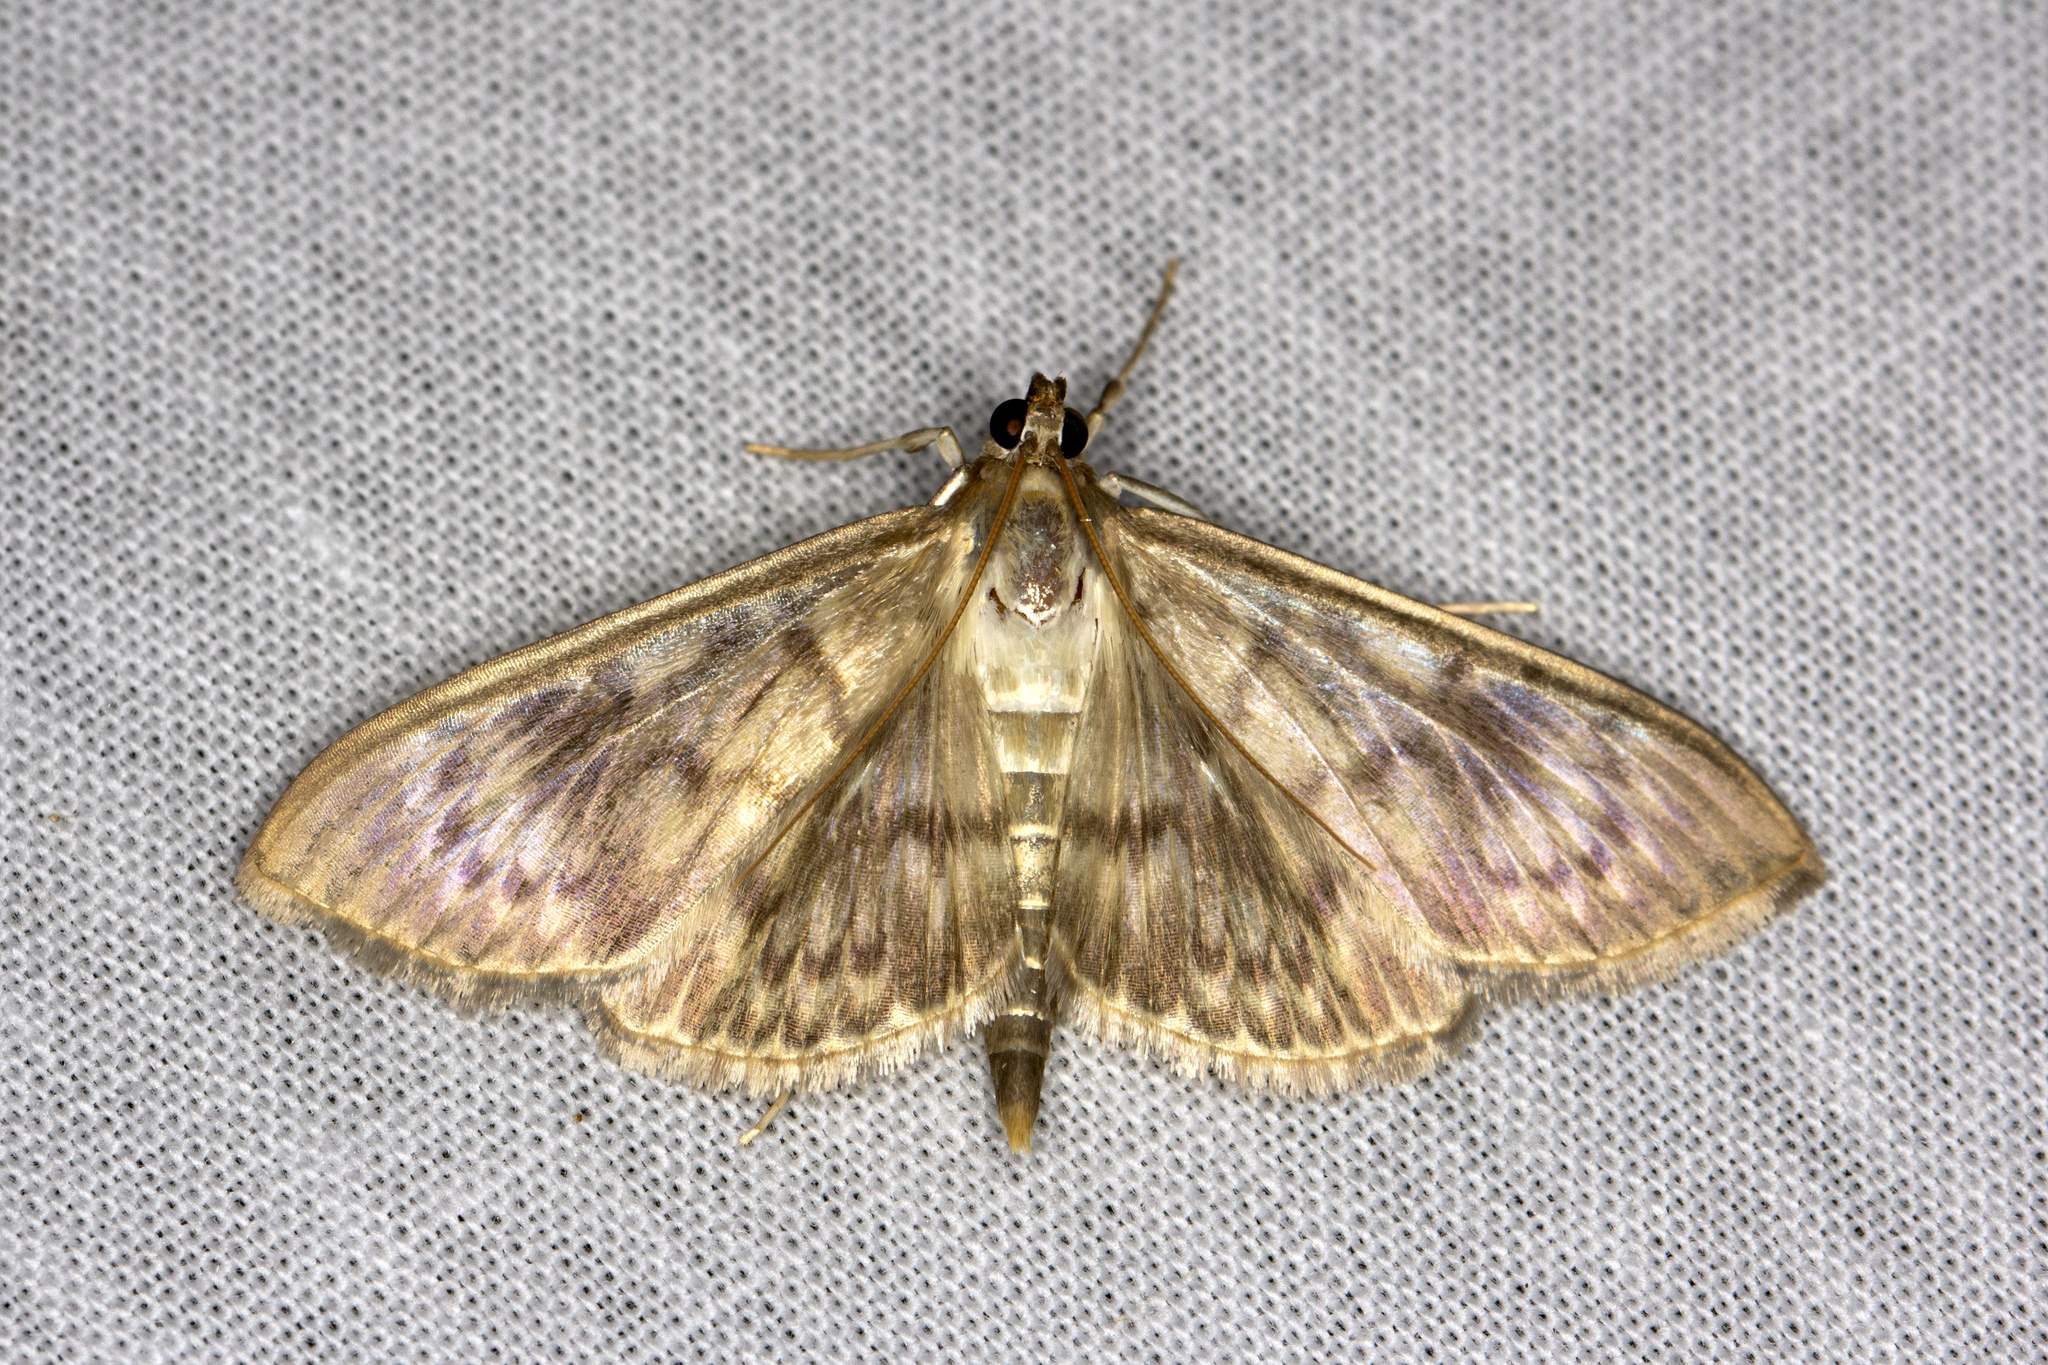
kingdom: Animalia
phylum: Arthropoda
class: Insecta
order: Lepidoptera
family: Crambidae
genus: Patania
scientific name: Patania ruralis
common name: Mother of pearl
